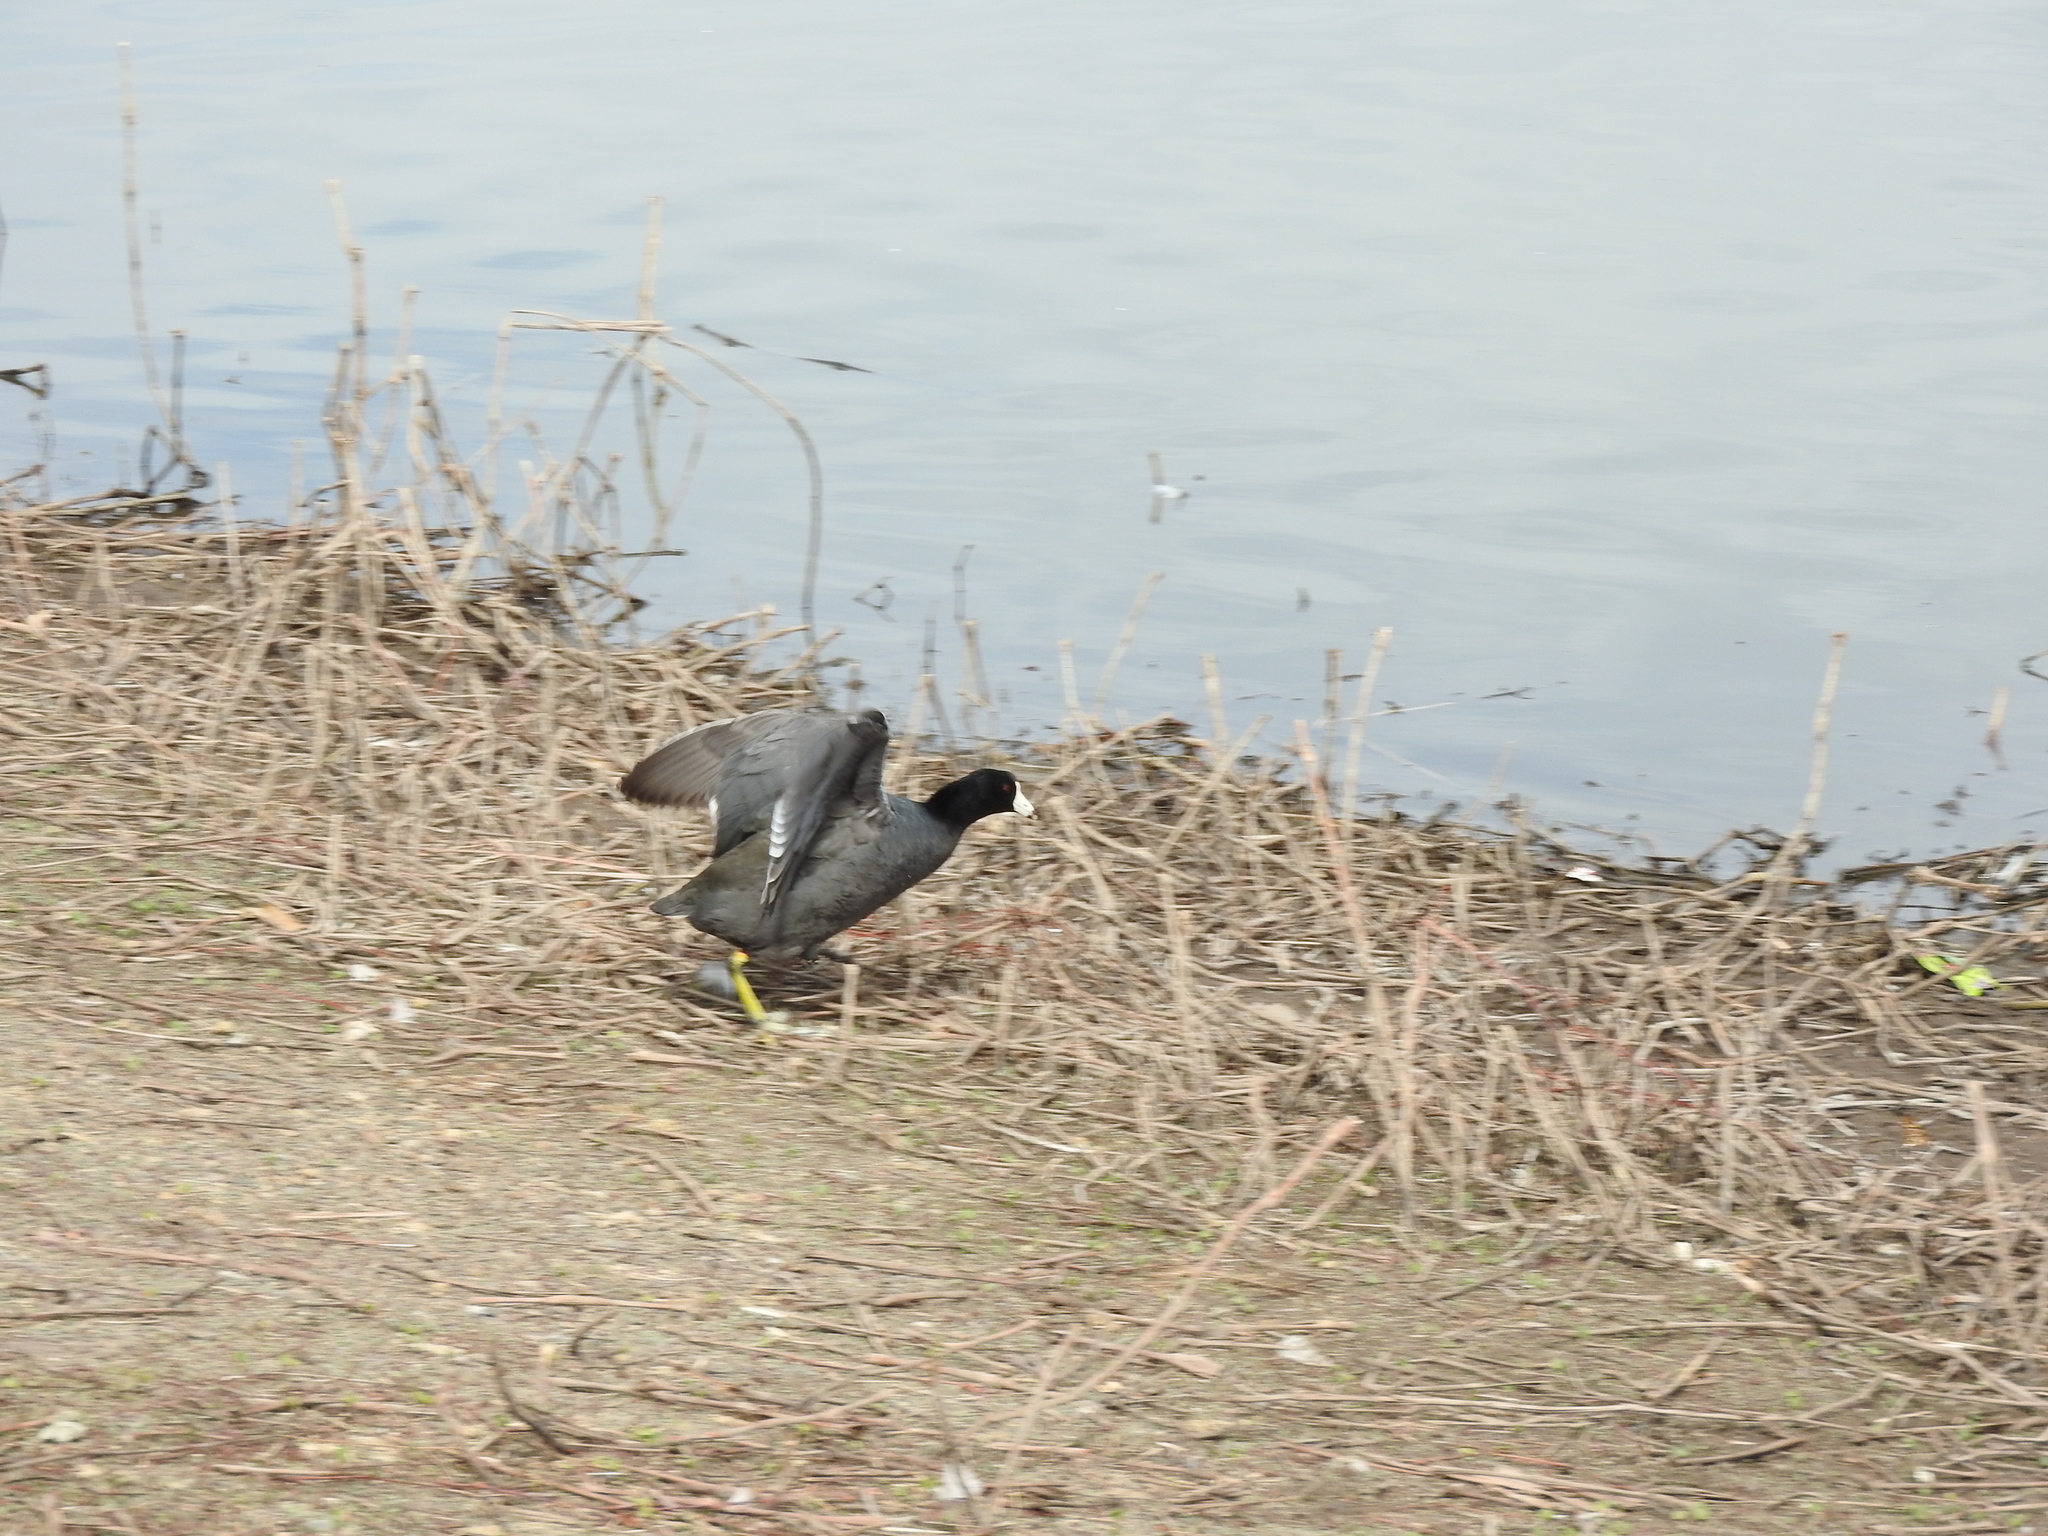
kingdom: Animalia
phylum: Chordata
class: Aves
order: Gruiformes
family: Rallidae
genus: Fulica
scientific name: Fulica americana
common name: American coot
